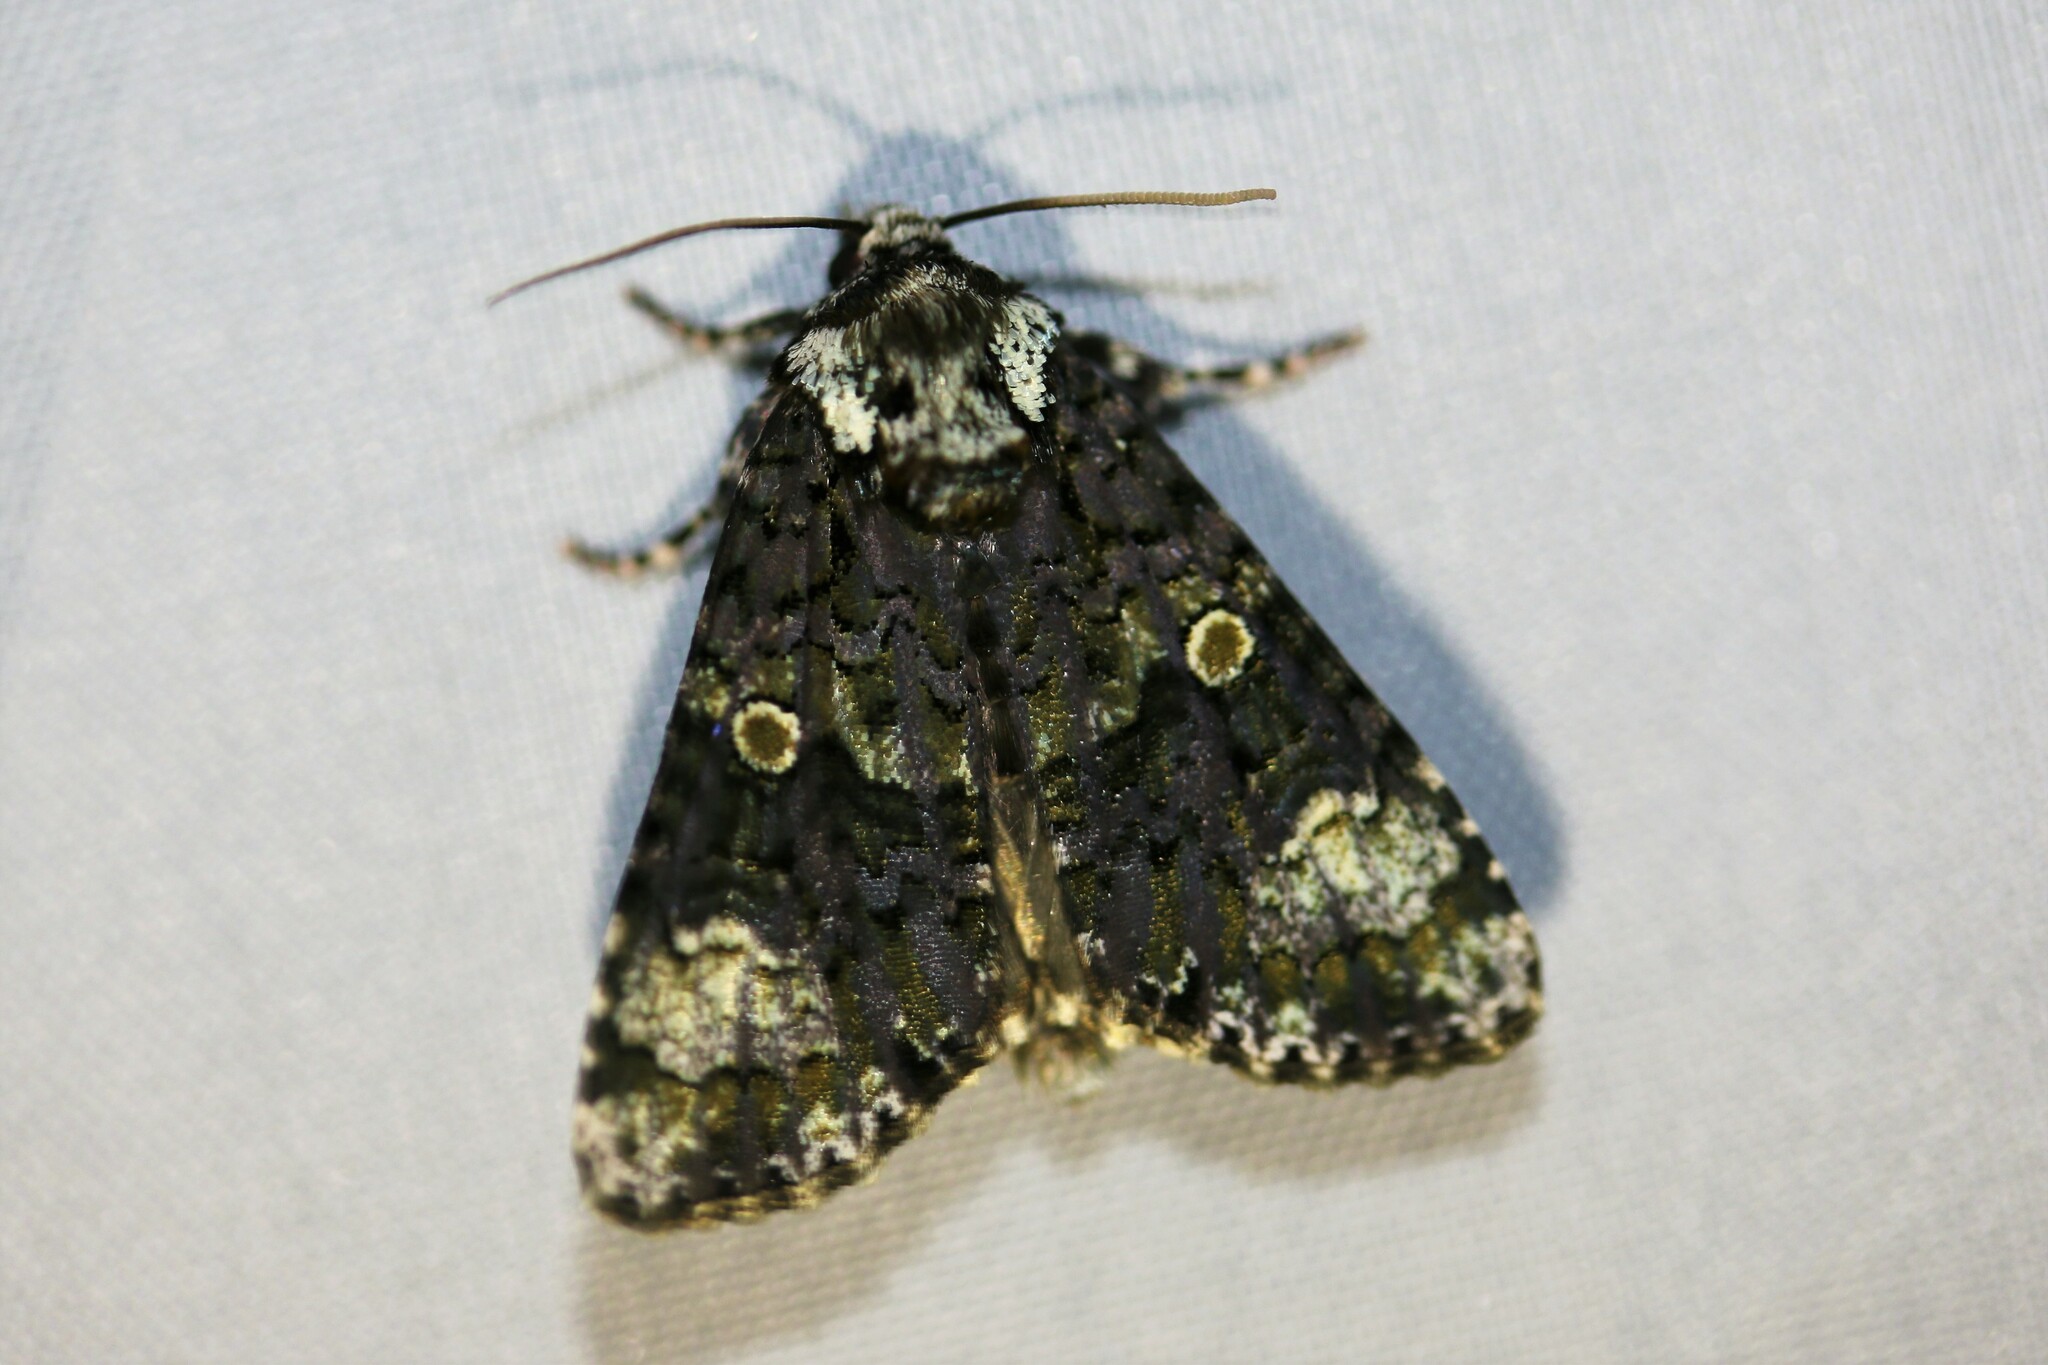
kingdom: Animalia
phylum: Arthropoda
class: Insecta
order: Lepidoptera
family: Noctuidae
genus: Craniophora
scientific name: Craniophora ligustri
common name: Coronet
